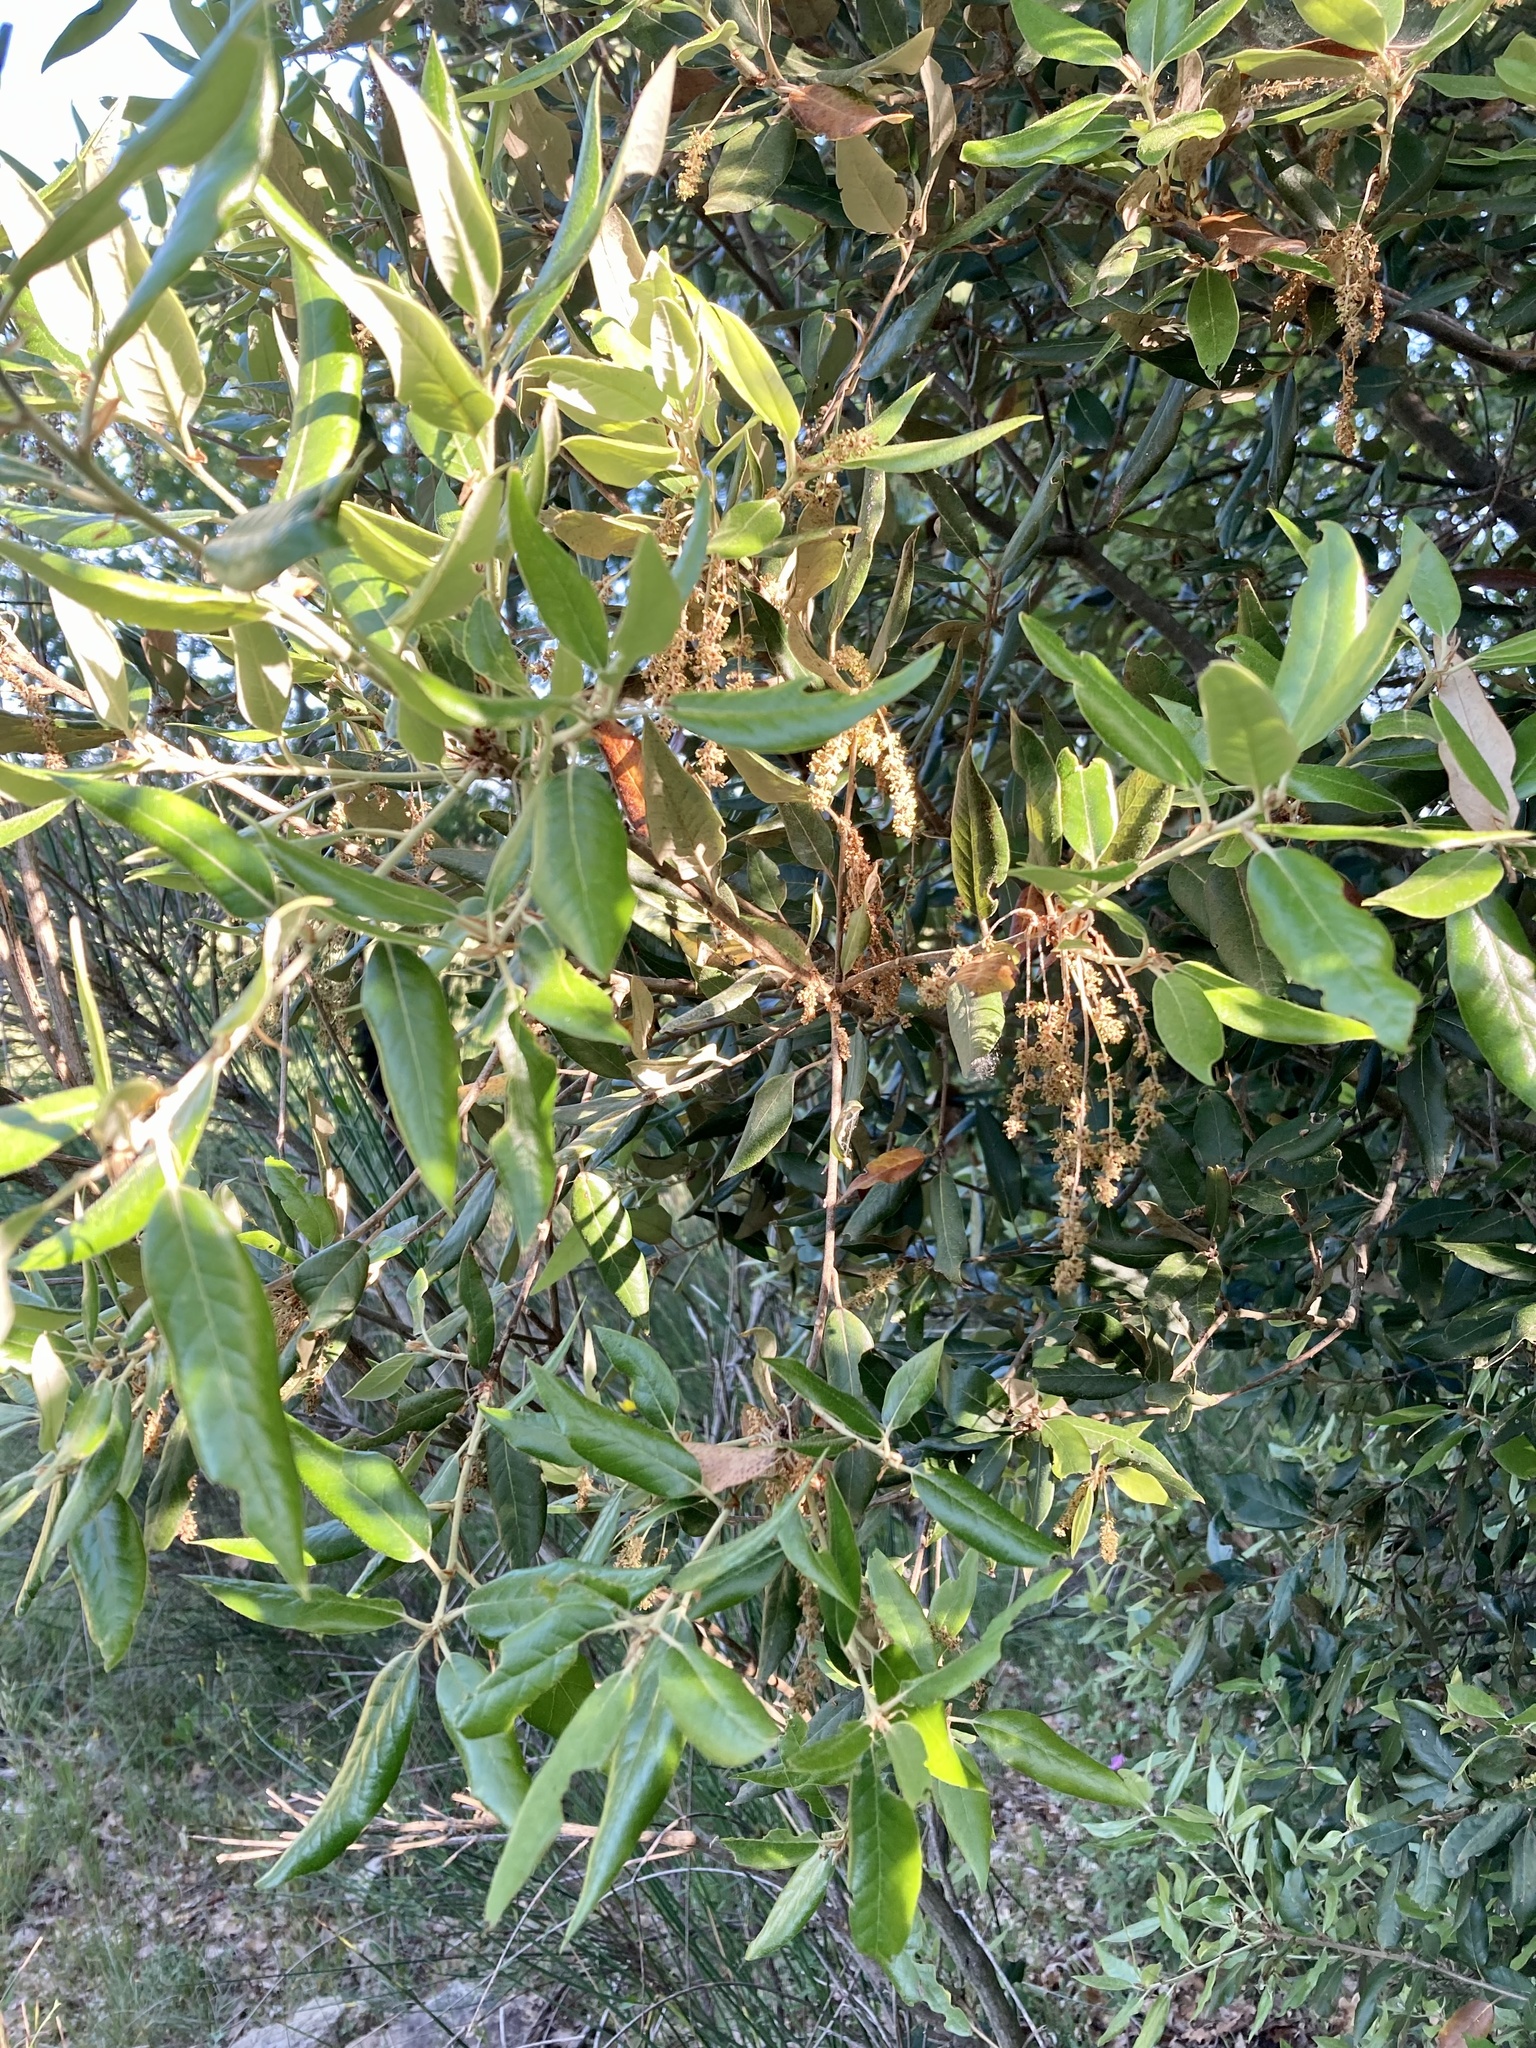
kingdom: Plantae
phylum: Tracheophyta
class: Magnoliopsida
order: Fagales
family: Fagaceae
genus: Quercus
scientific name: Quercus ilex
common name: Evergreen oak
